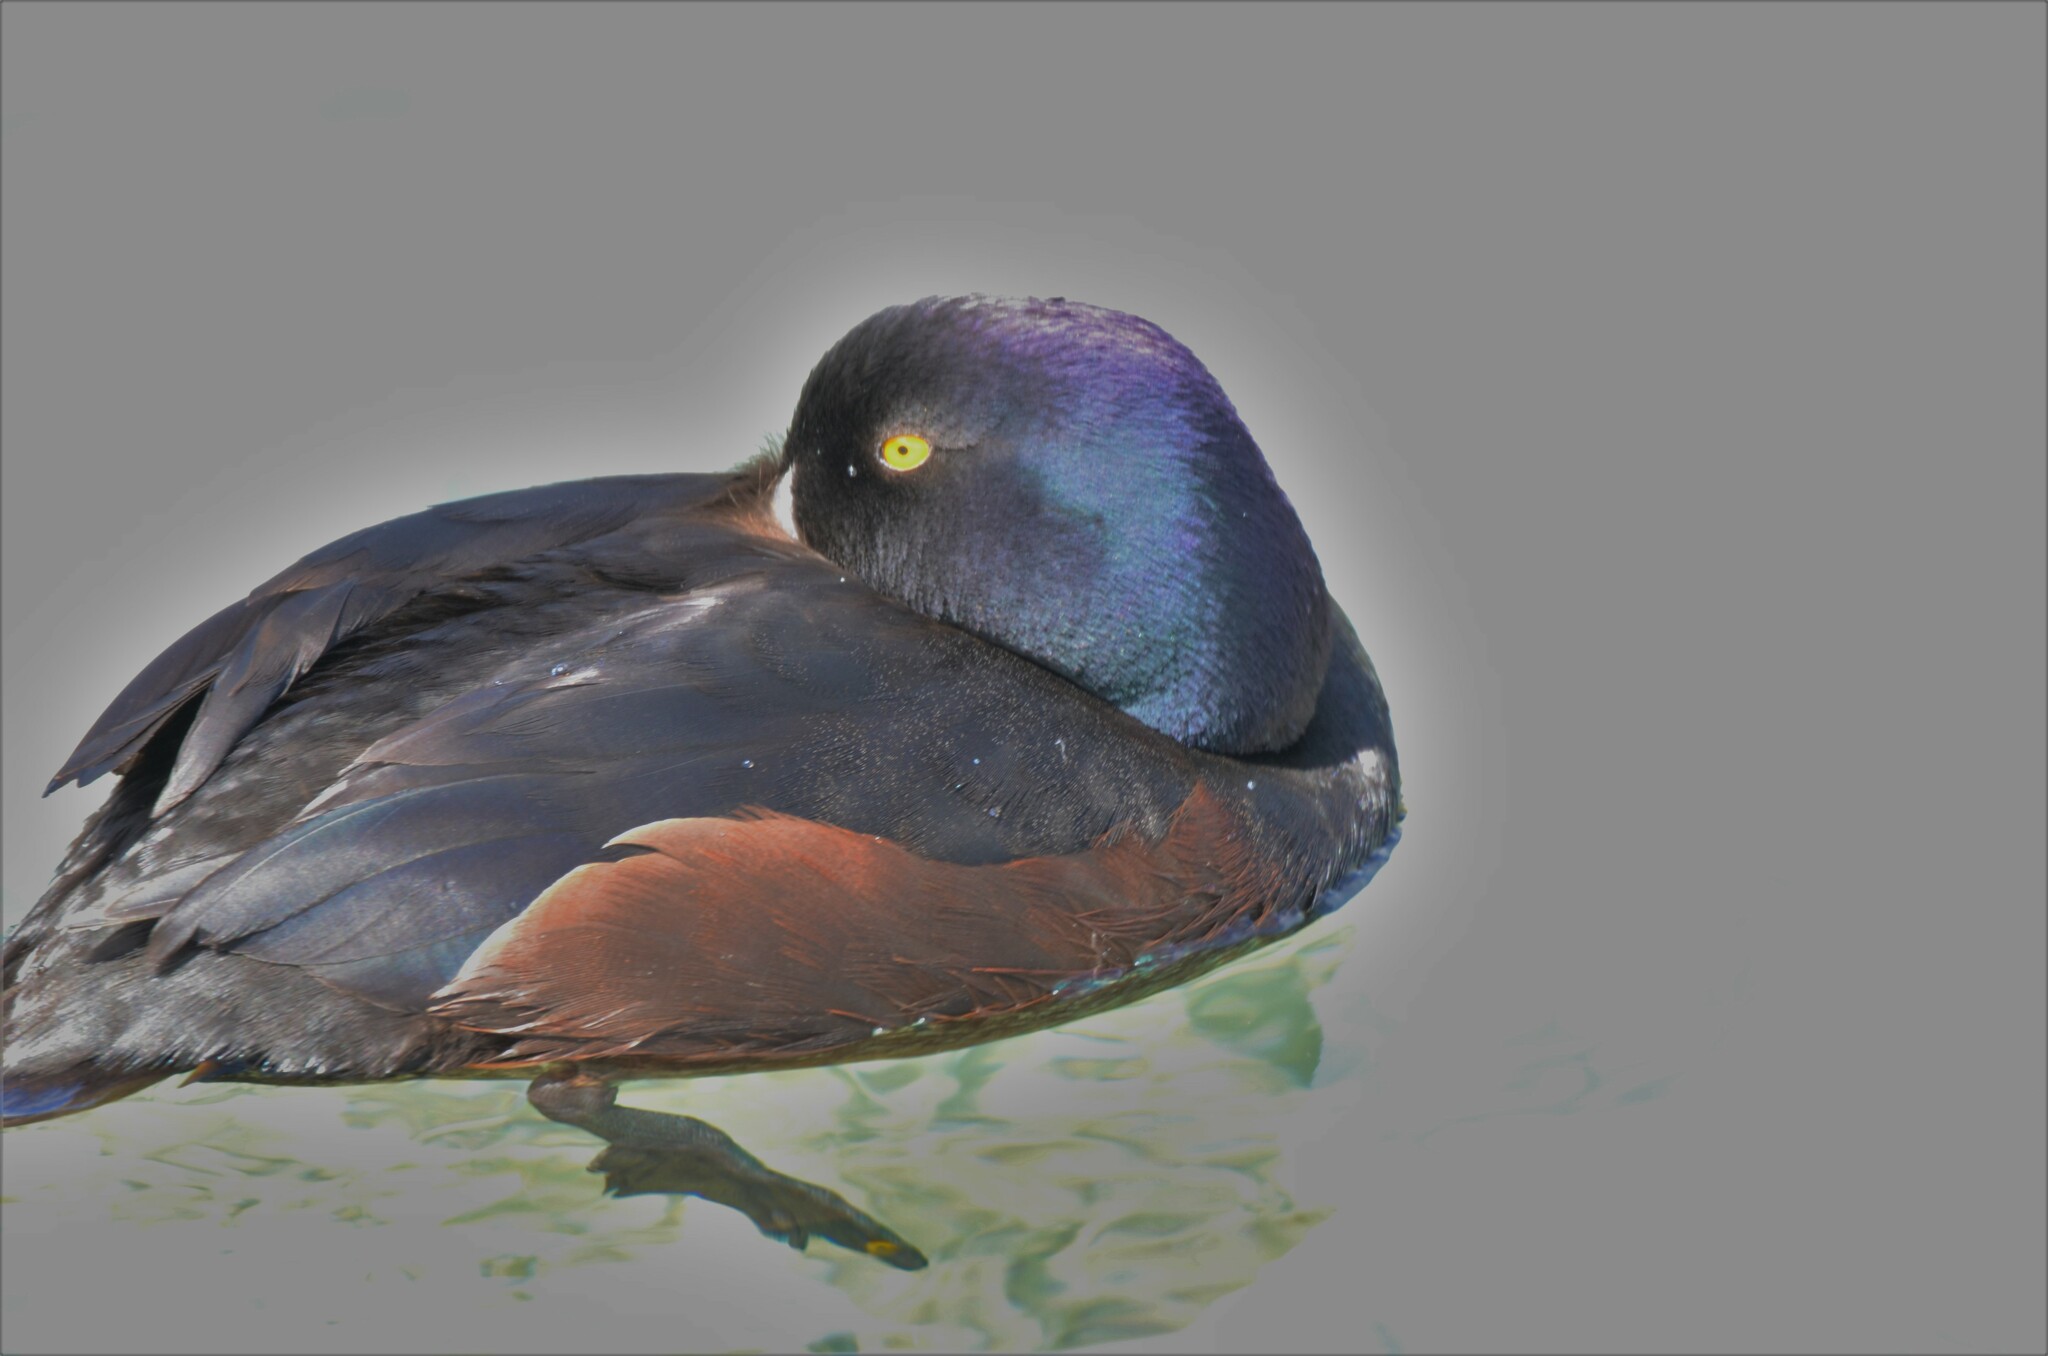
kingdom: Animalia
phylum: Chordata
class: Aves
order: Anseriformes
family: Anatidae
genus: Aythya
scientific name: Aythya novaeseelandiae
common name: New zealand scaup
